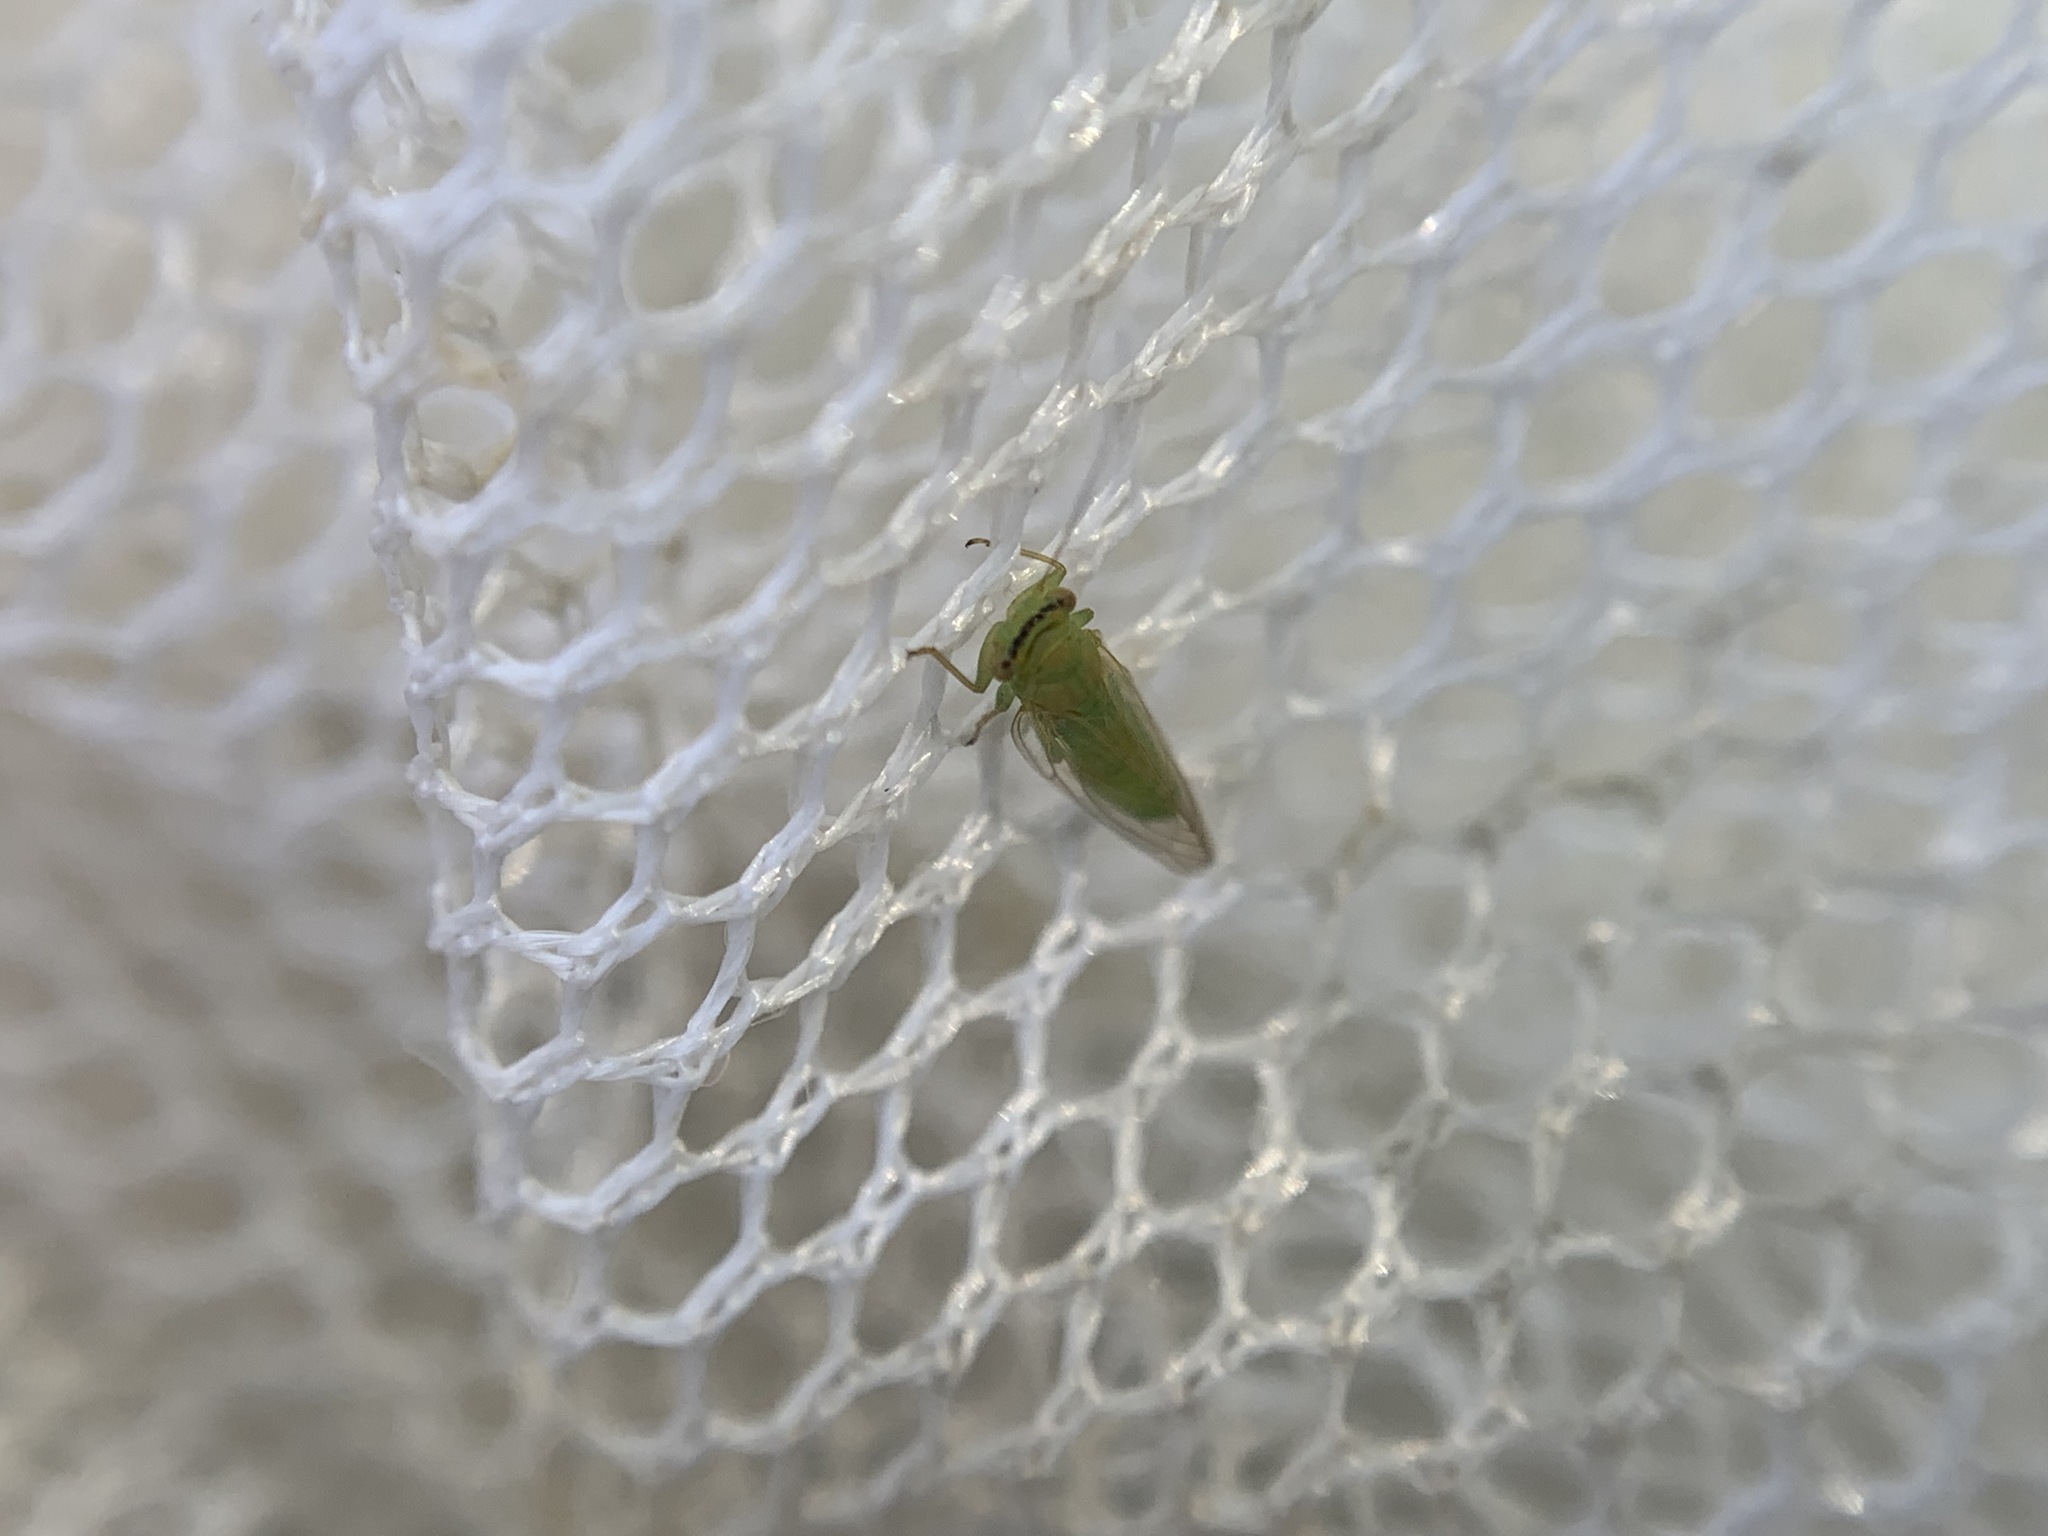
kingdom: Animalia
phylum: Arthropoda
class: Insecta
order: Hemiptera
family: Psyllidae
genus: Platycorypha
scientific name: Platycorypha nigrivirga
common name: Tipu psyllid
